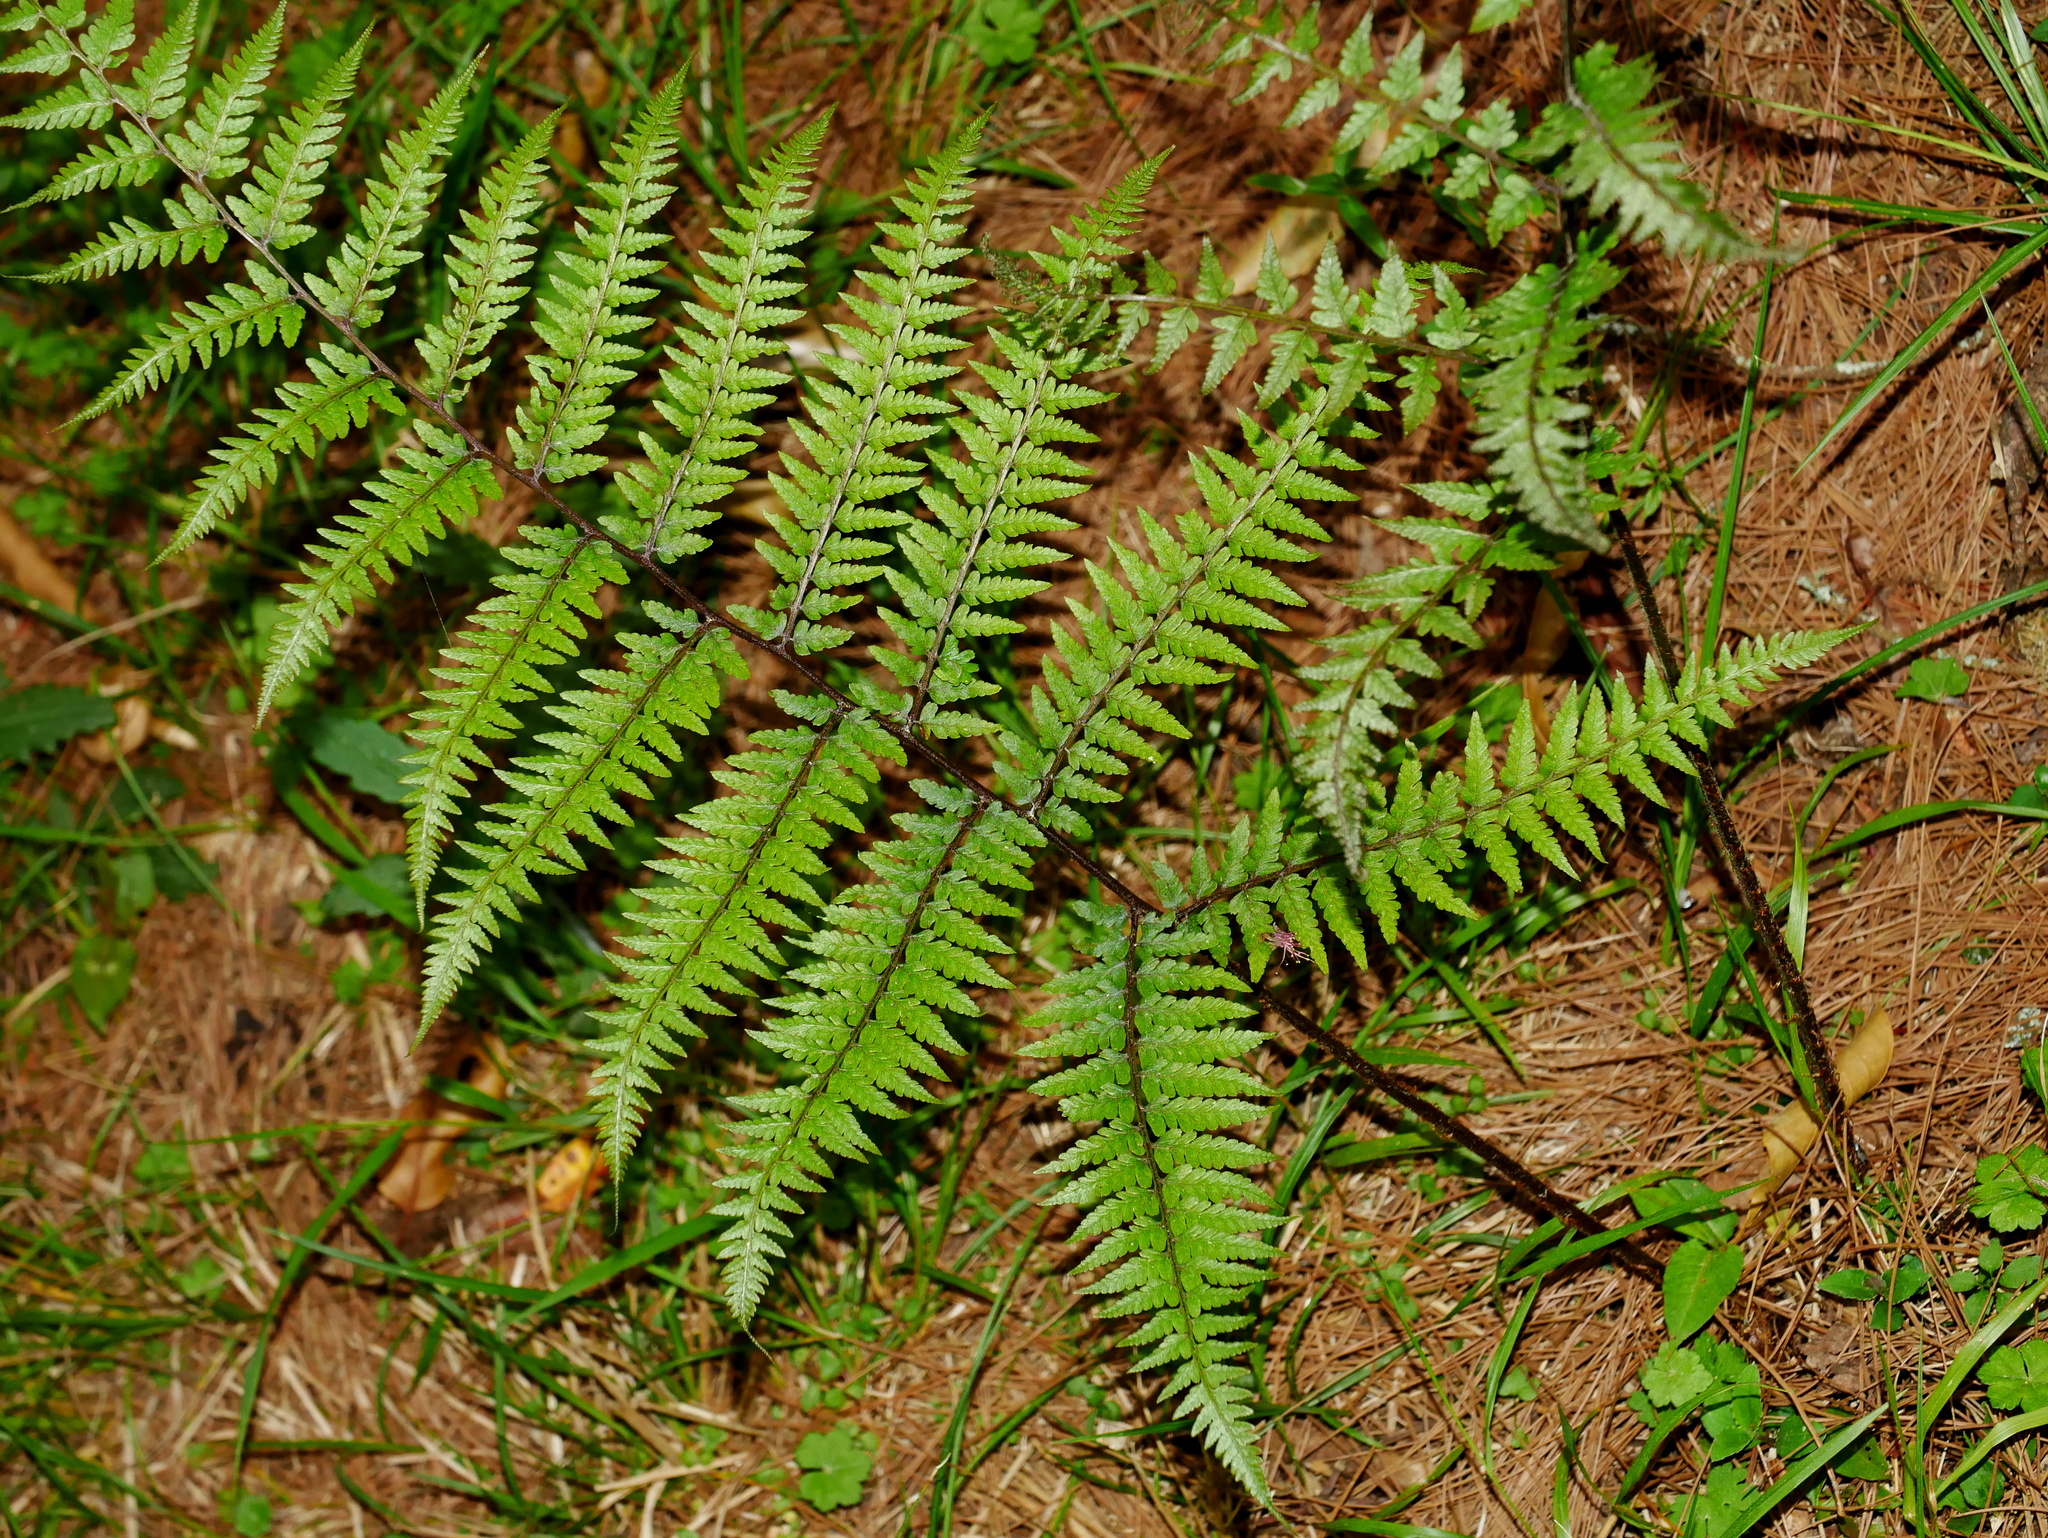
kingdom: Plantae
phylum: Tracheophyta
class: Polypodiopsida
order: Polypodiales
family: Athyriaceae
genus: Athyrium
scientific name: Athyrium vidalii
